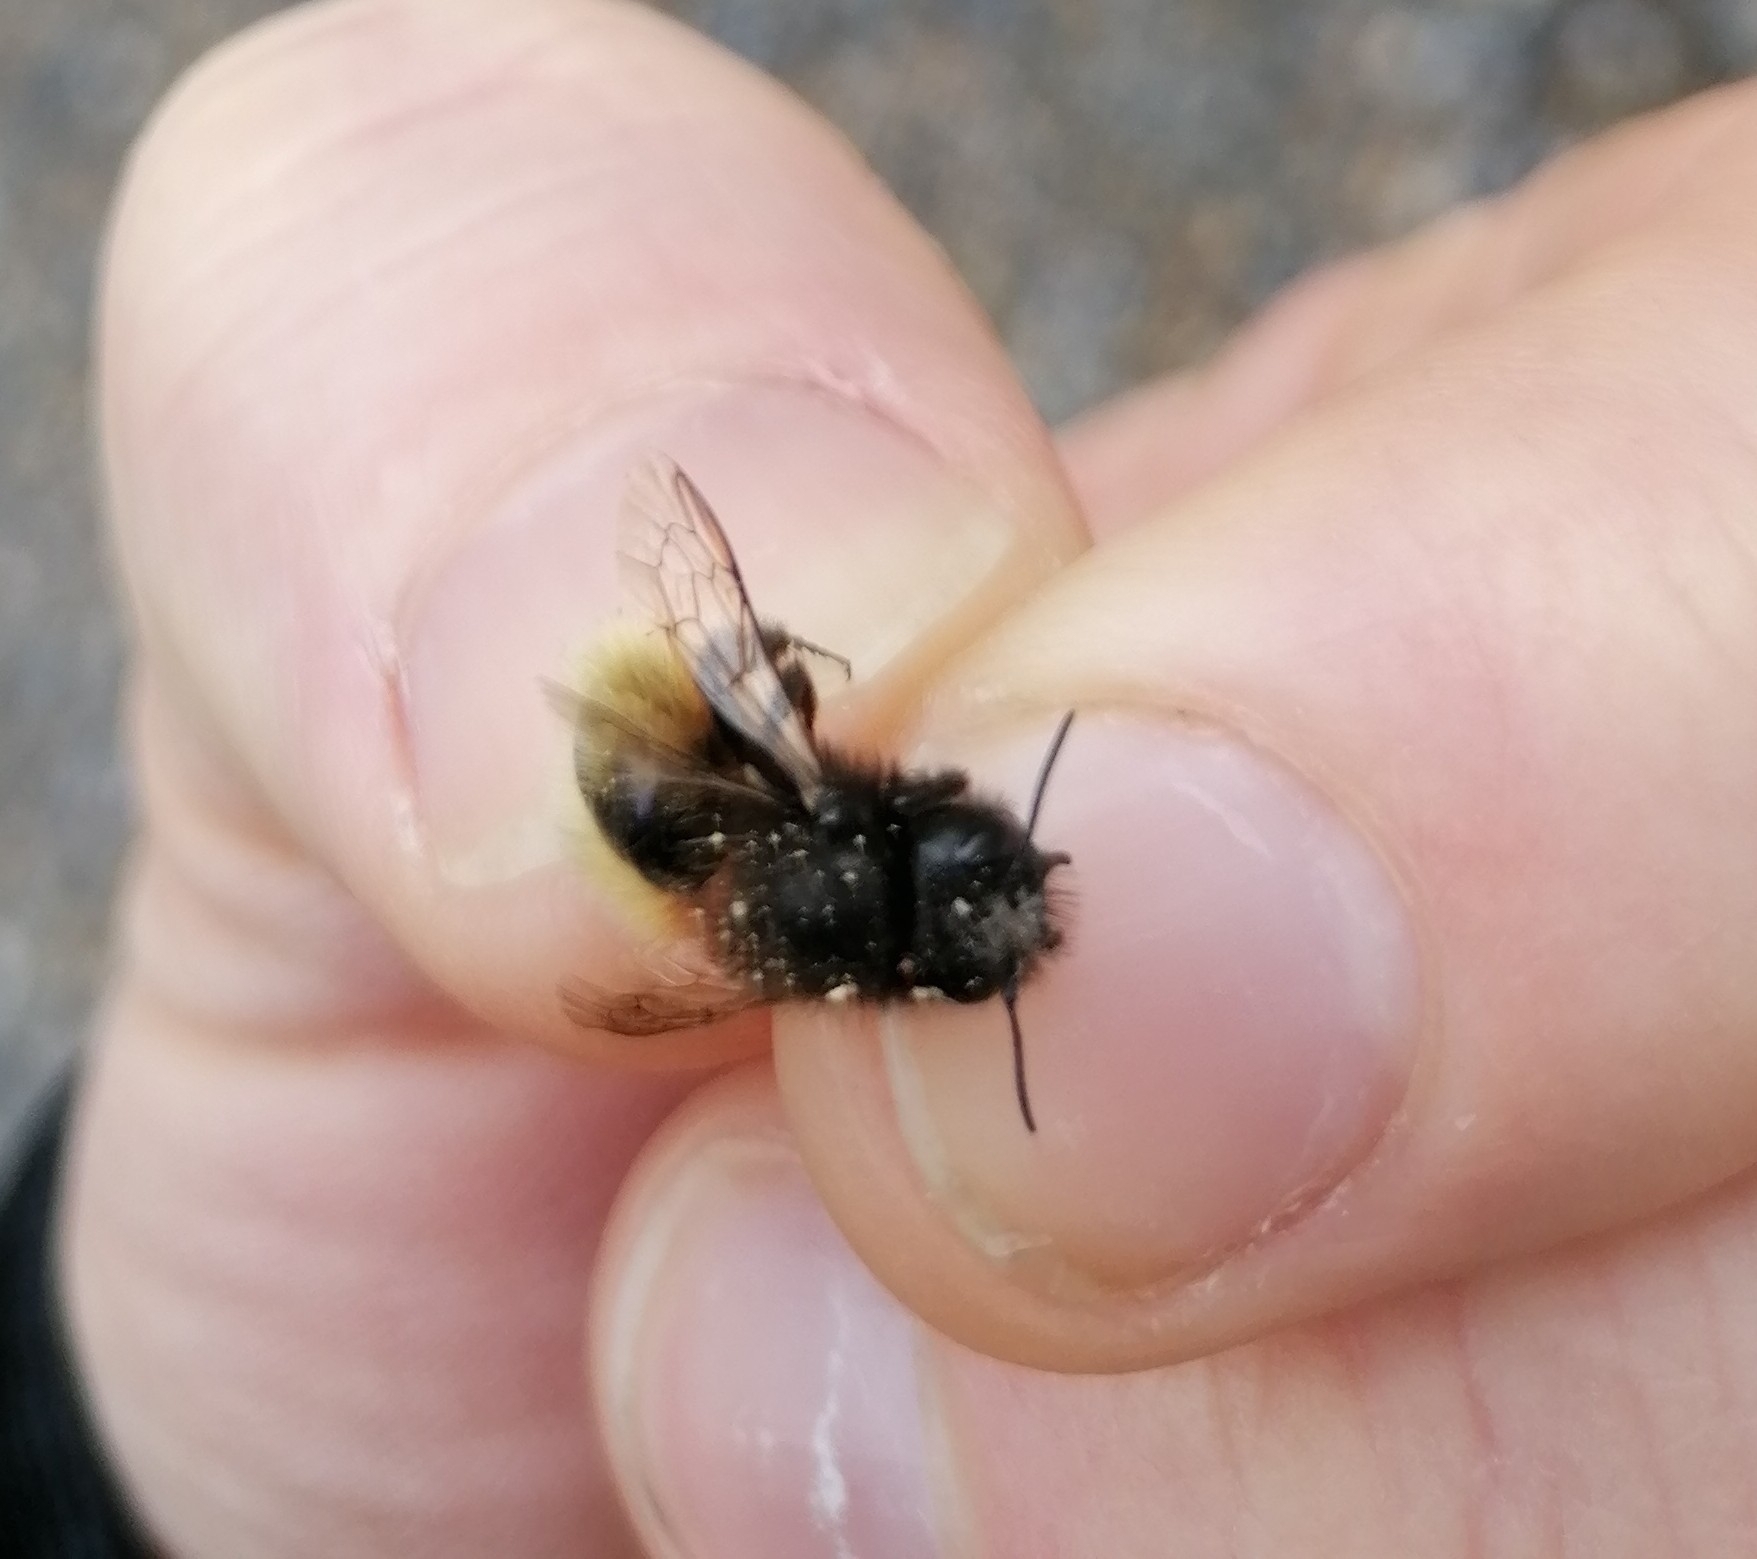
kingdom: Animalia
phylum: Arthropoda
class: Insecta
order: Hymenoptera
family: Megachilidae
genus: Osmia
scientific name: Osmia cornuta
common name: Mason bee
